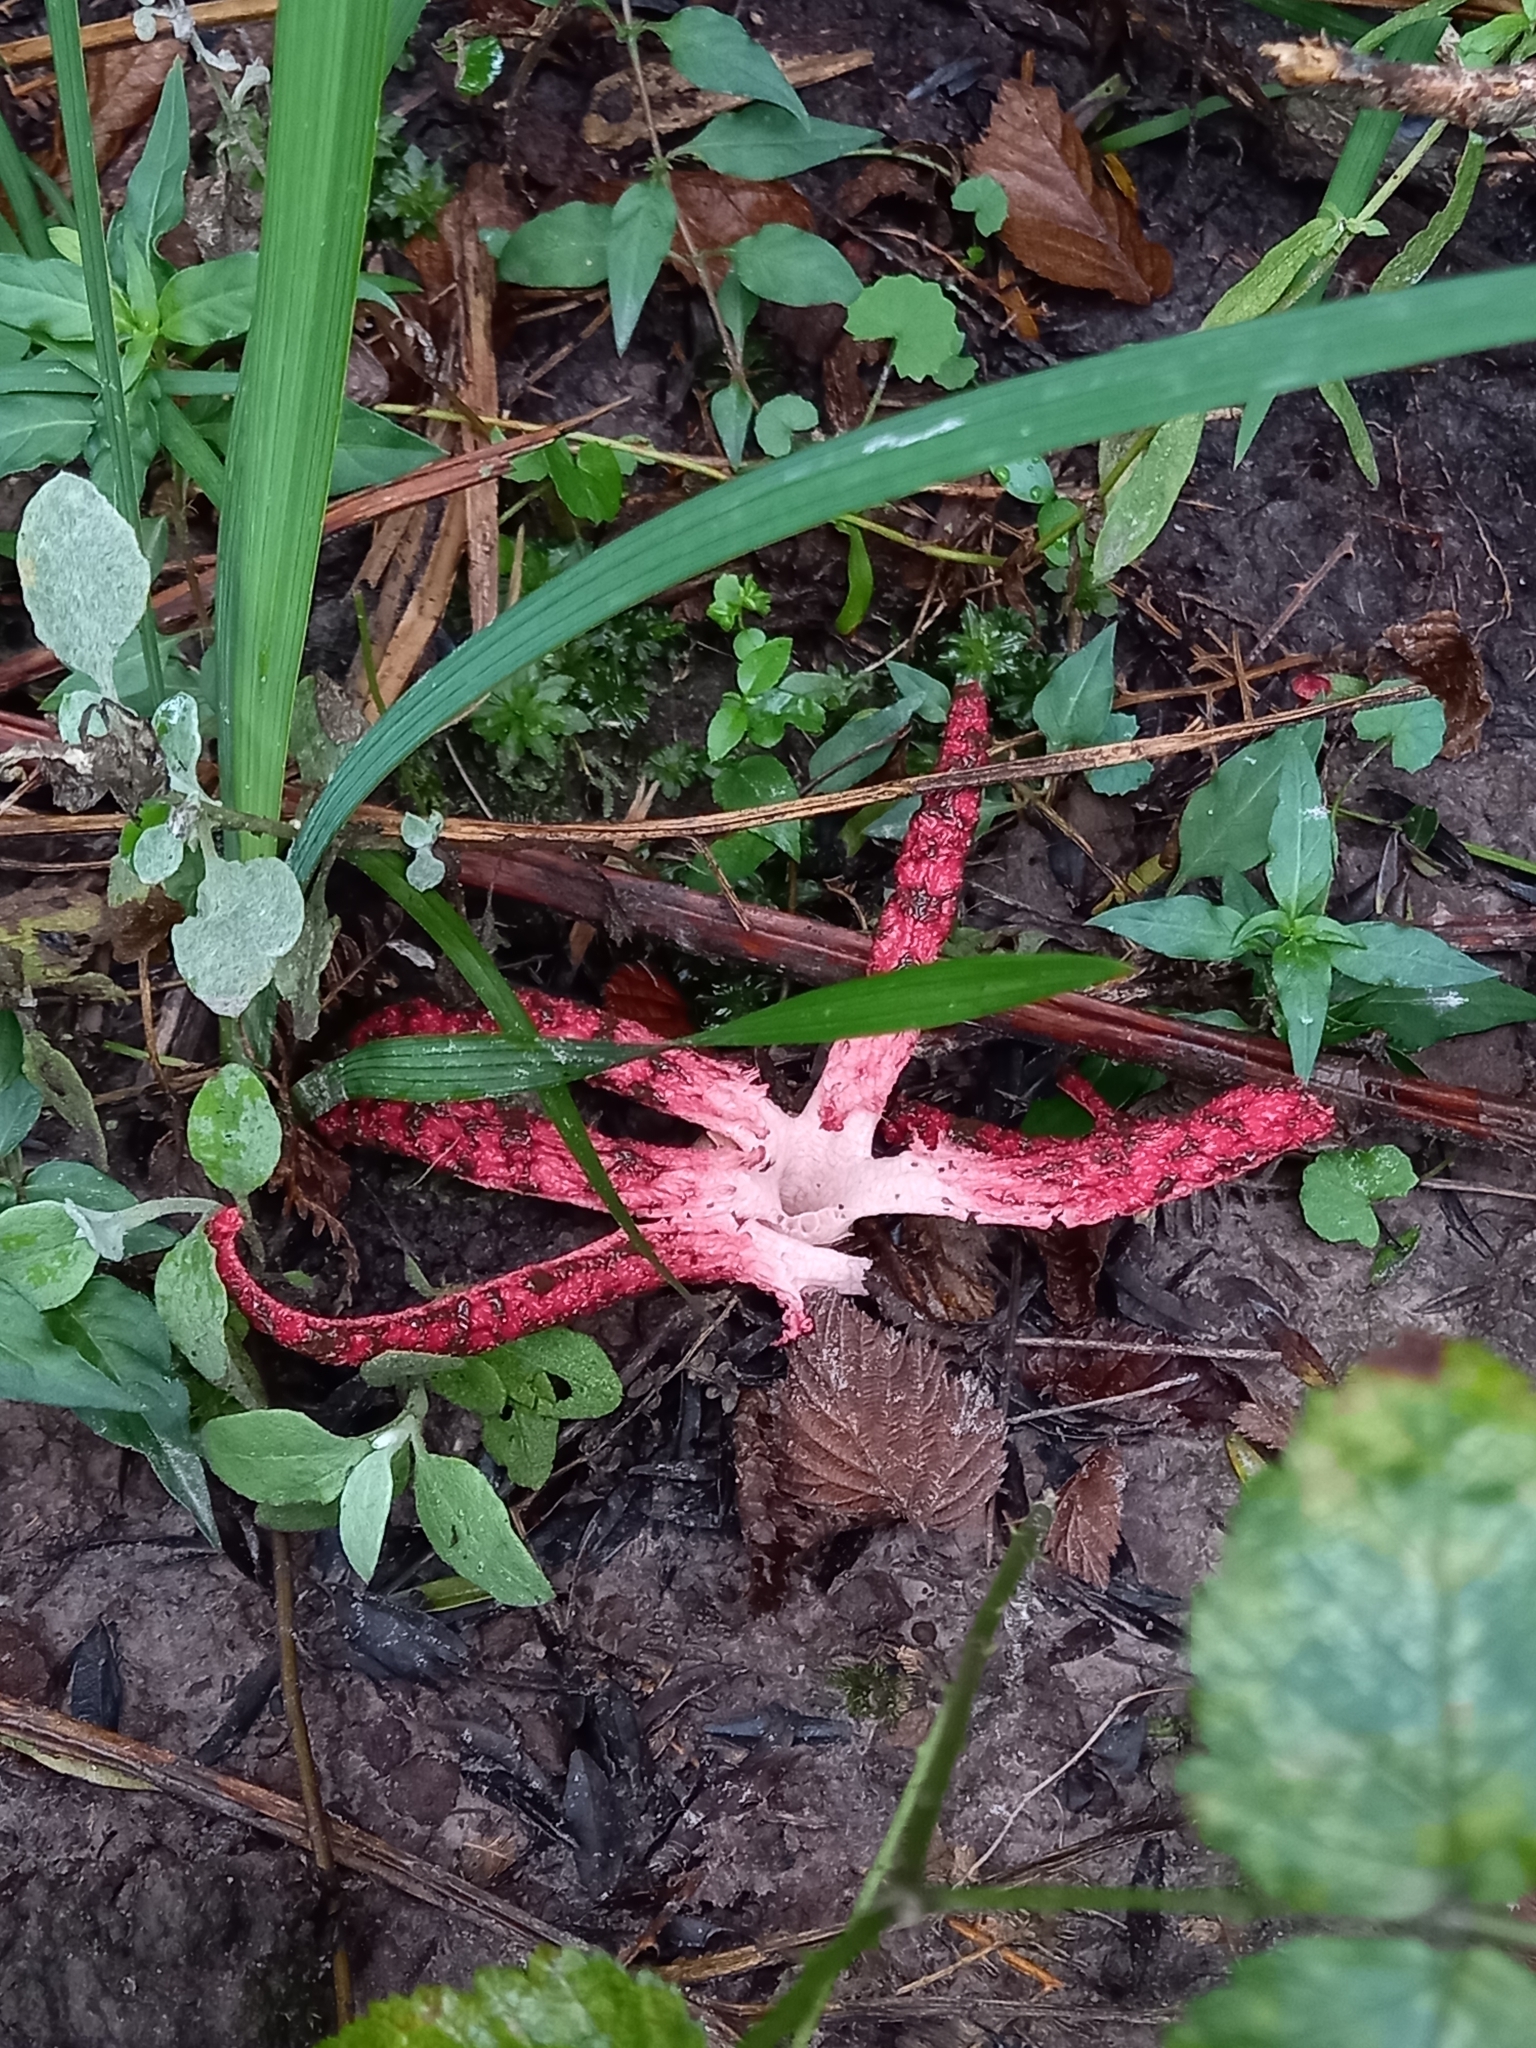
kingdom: Fungi
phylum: Basidiomycota
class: Agaricomycetes
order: Phallales
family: Phallaceae
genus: Clathrus
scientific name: Clathrus archeri
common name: Devil's fingers
